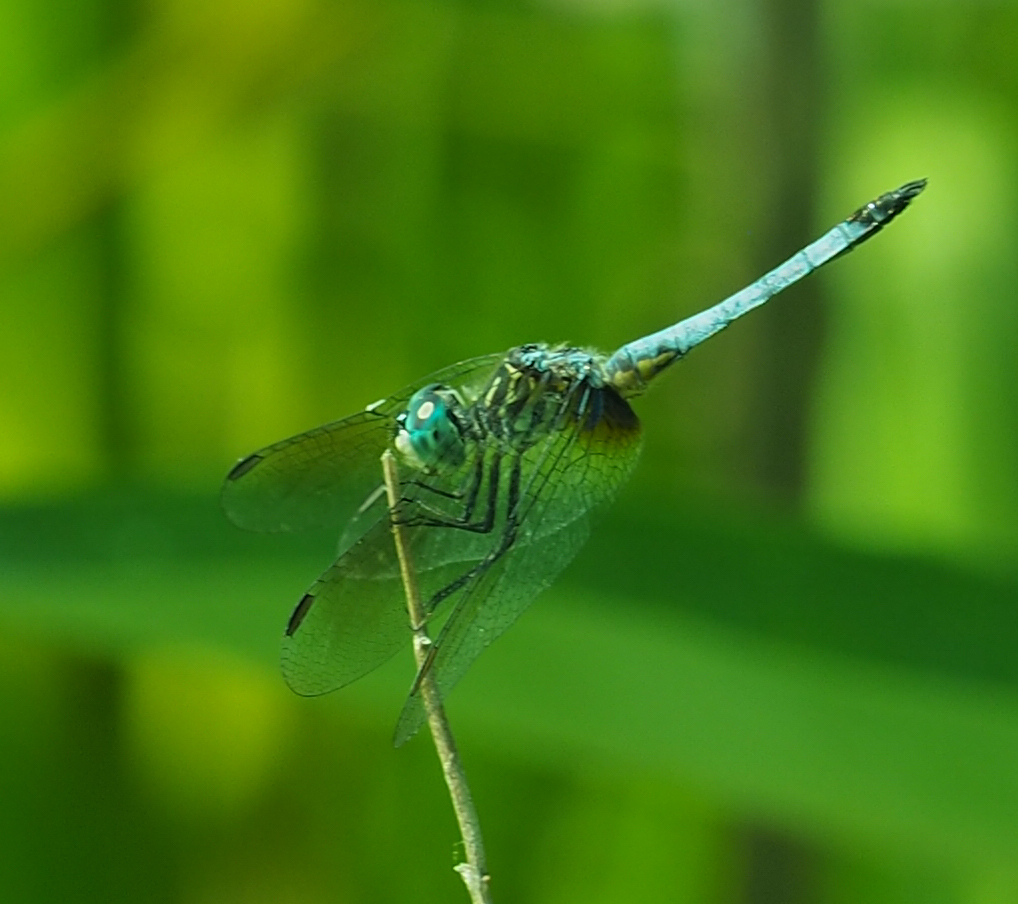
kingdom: Animalia
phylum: Arthropoda
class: Insecta
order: Odonata
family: Libellulidae
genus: Pachydiplax
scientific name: Pachydiplax longipennis
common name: Blue dasher
